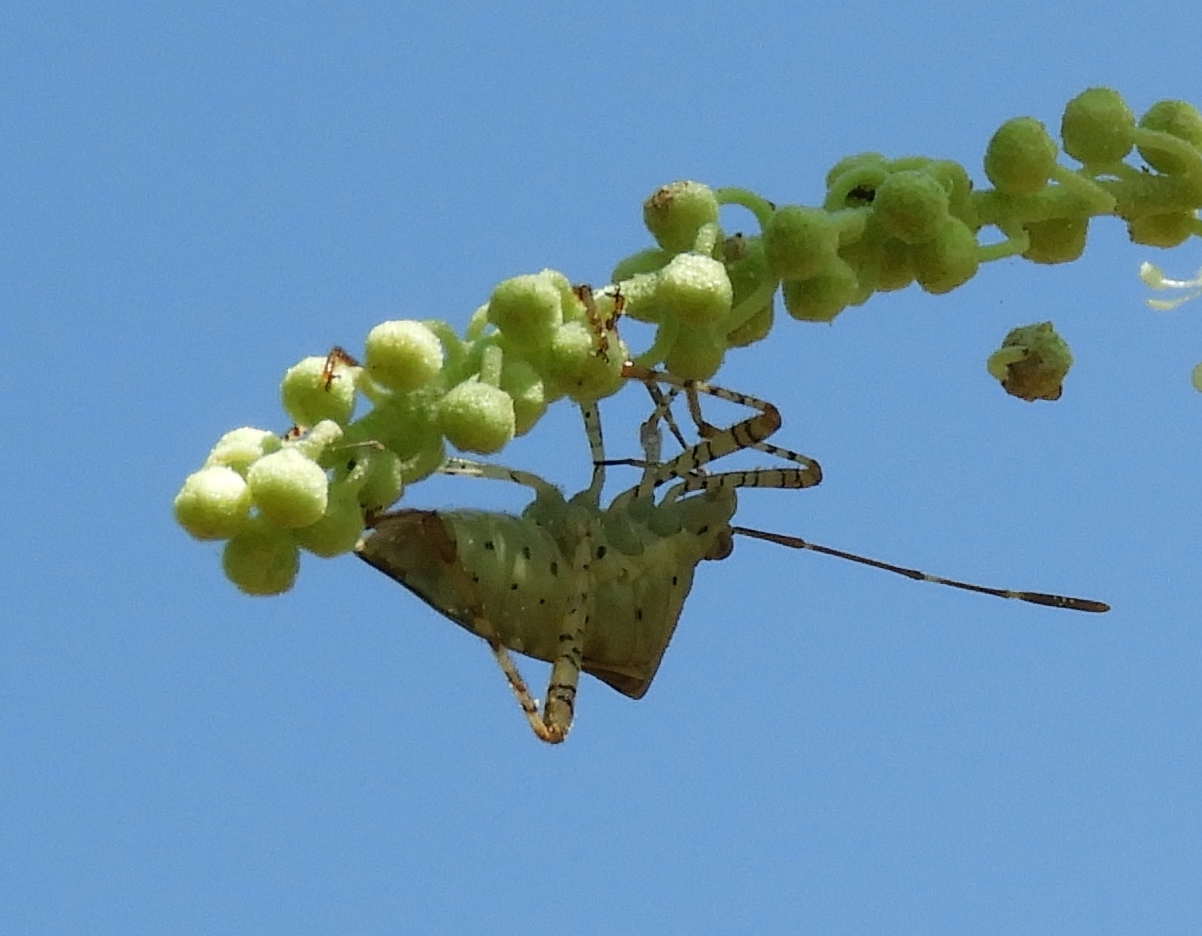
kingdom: Animalia
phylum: Arthropoda
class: Insecta
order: Hemiptera
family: Coreidae
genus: Hypselonotus
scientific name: Hypselonotus punctiventris
